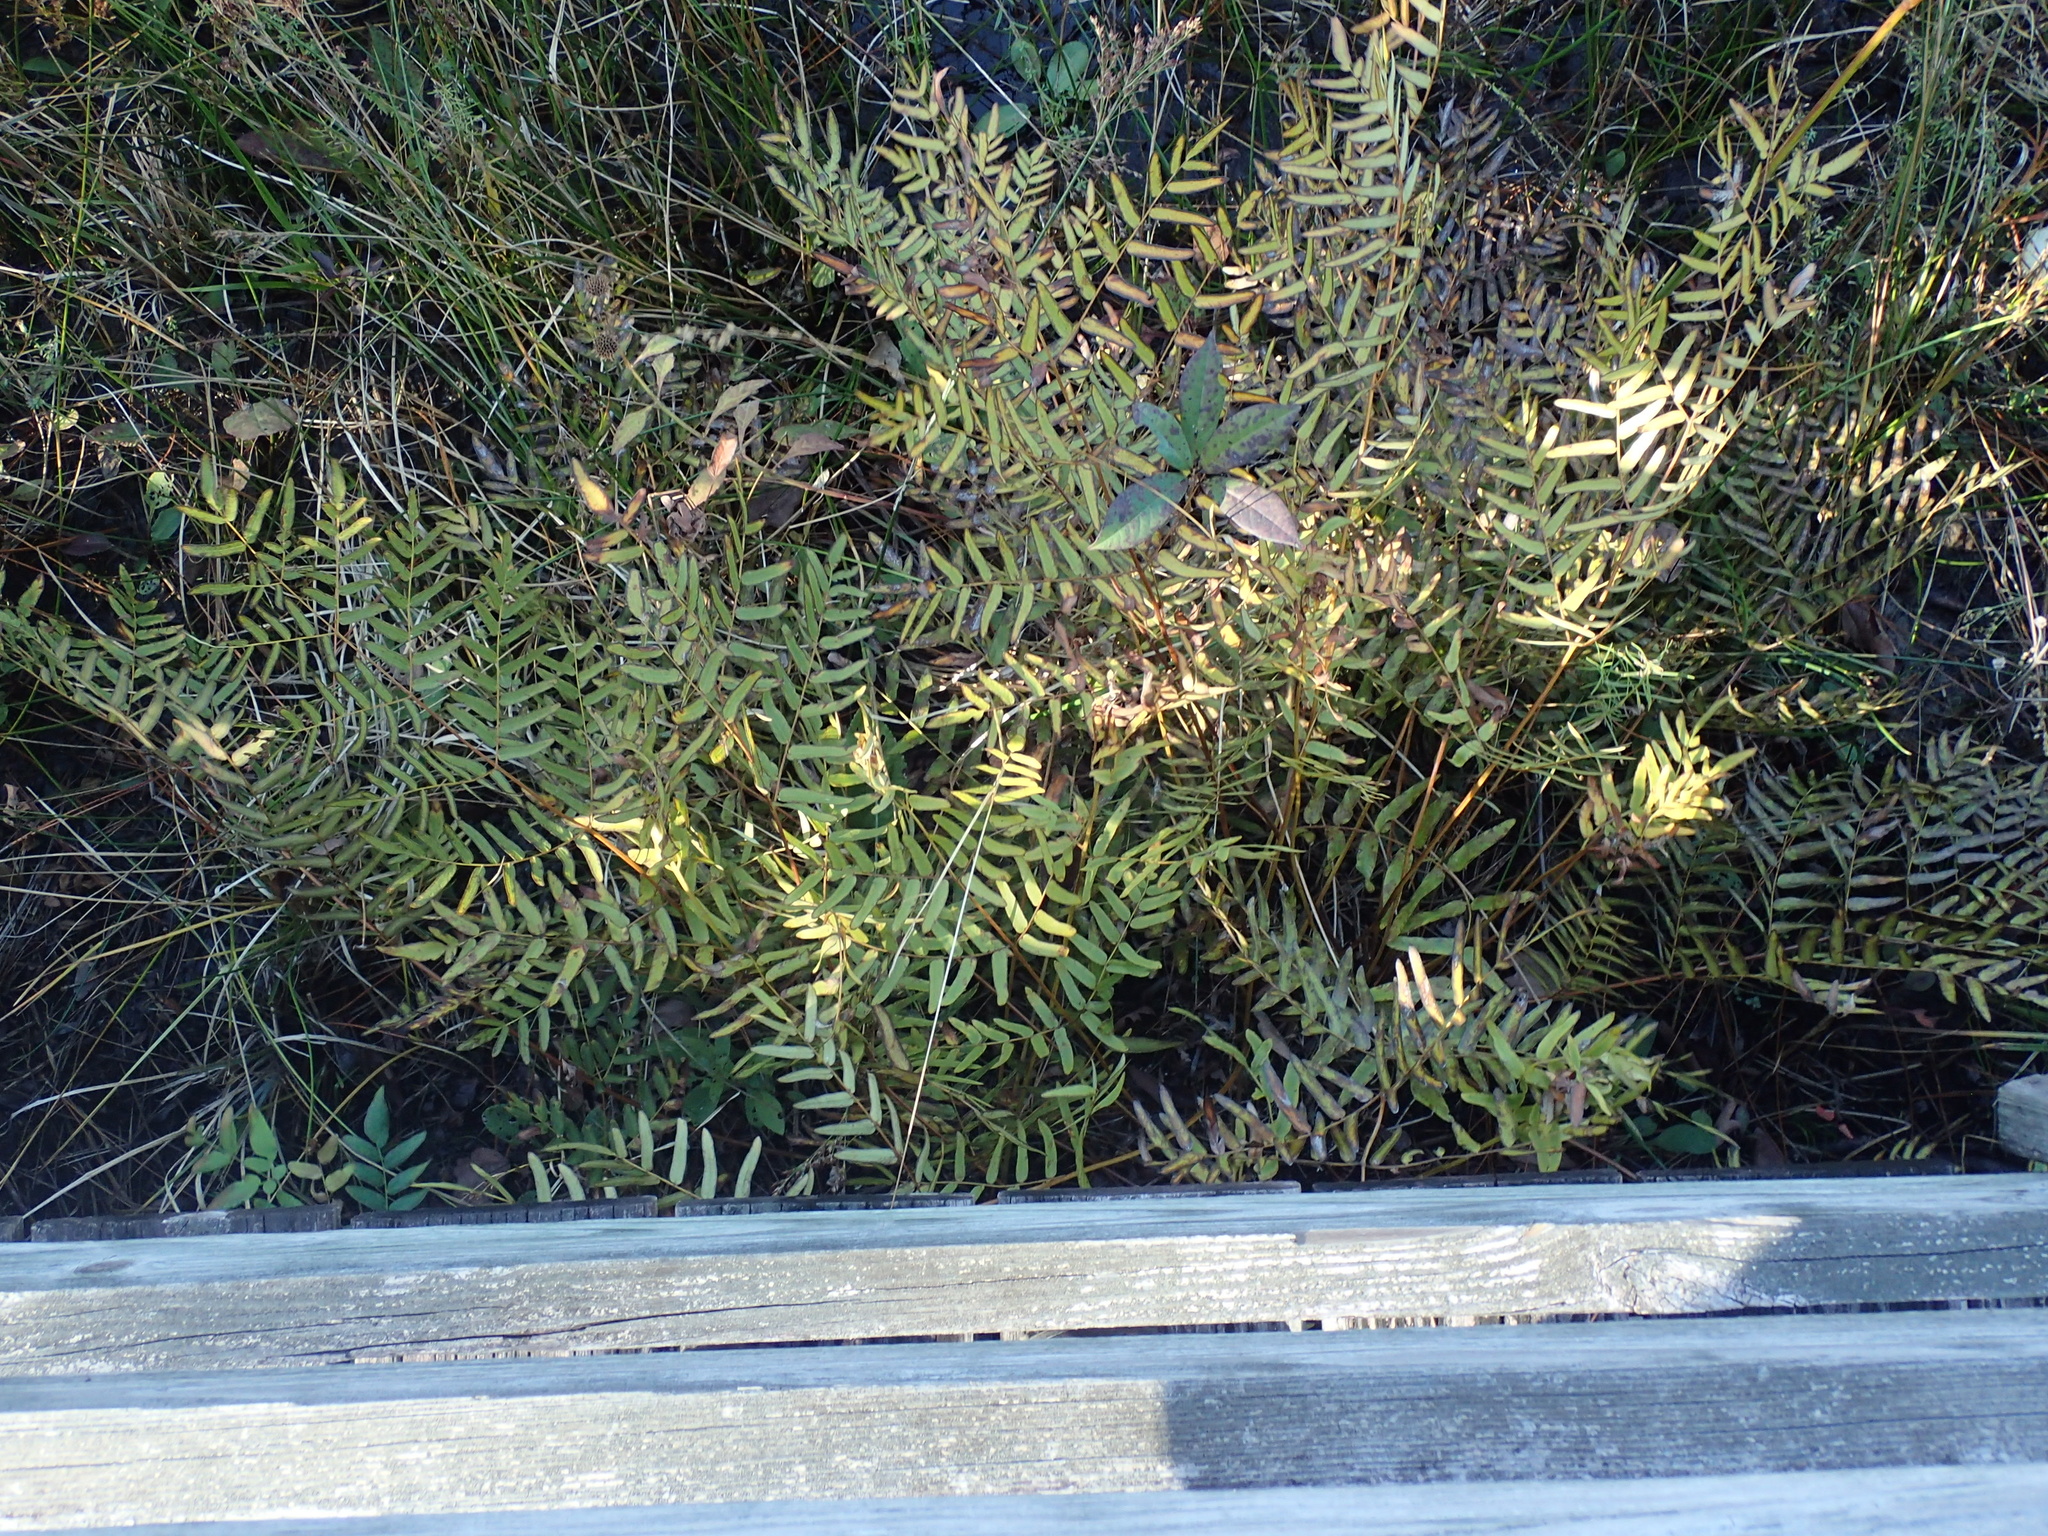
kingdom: Plantae
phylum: Tracheophyta
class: Polypodiopsida
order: Osmundales
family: Osmundaceae
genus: Osmunda
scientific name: Osmunda spectabilis
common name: American royal fern
